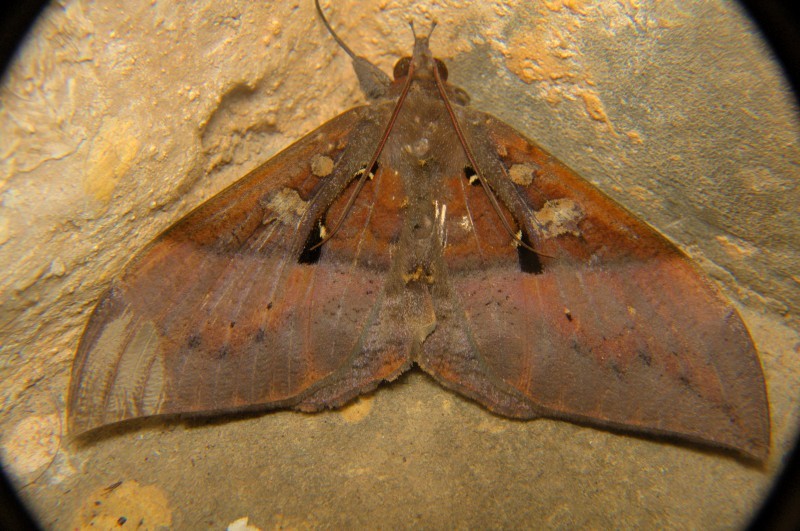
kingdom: Animalia
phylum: Arthropoda
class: Insecta
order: Lepidoptera
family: Erebidae
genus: Ischyja
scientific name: Ischyja manlia
